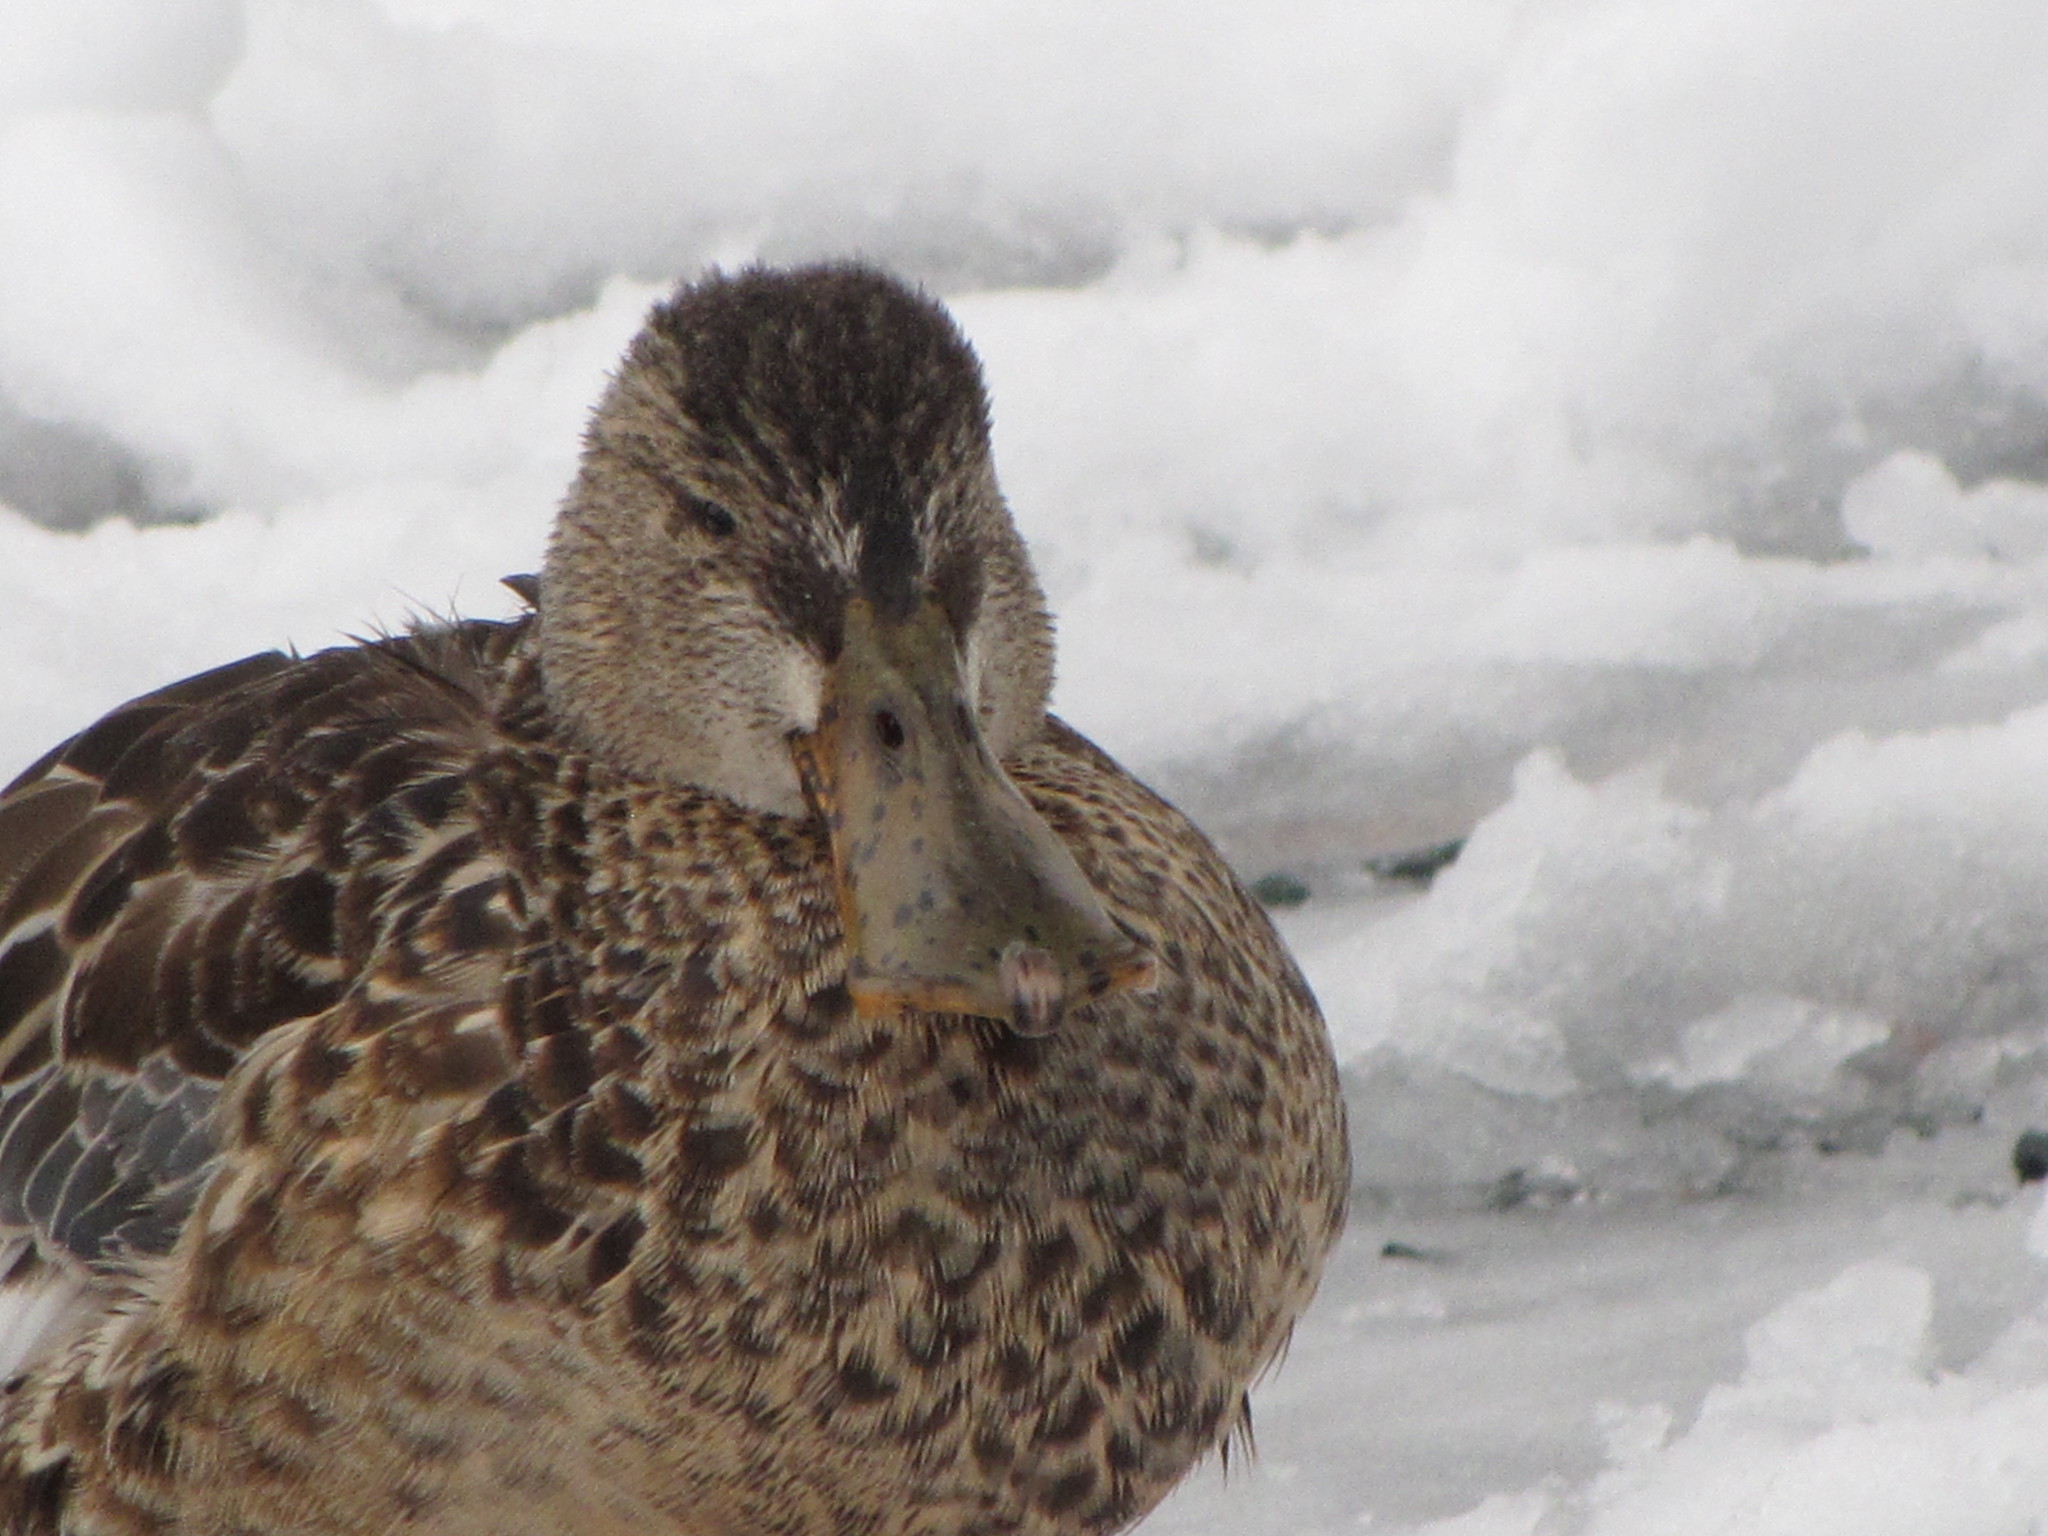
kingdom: Animalia
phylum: Chordata
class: Aves
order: Anseriformes
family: Anatidae
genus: Spatula
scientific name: Spatula clypeata
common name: Northern shoveler
